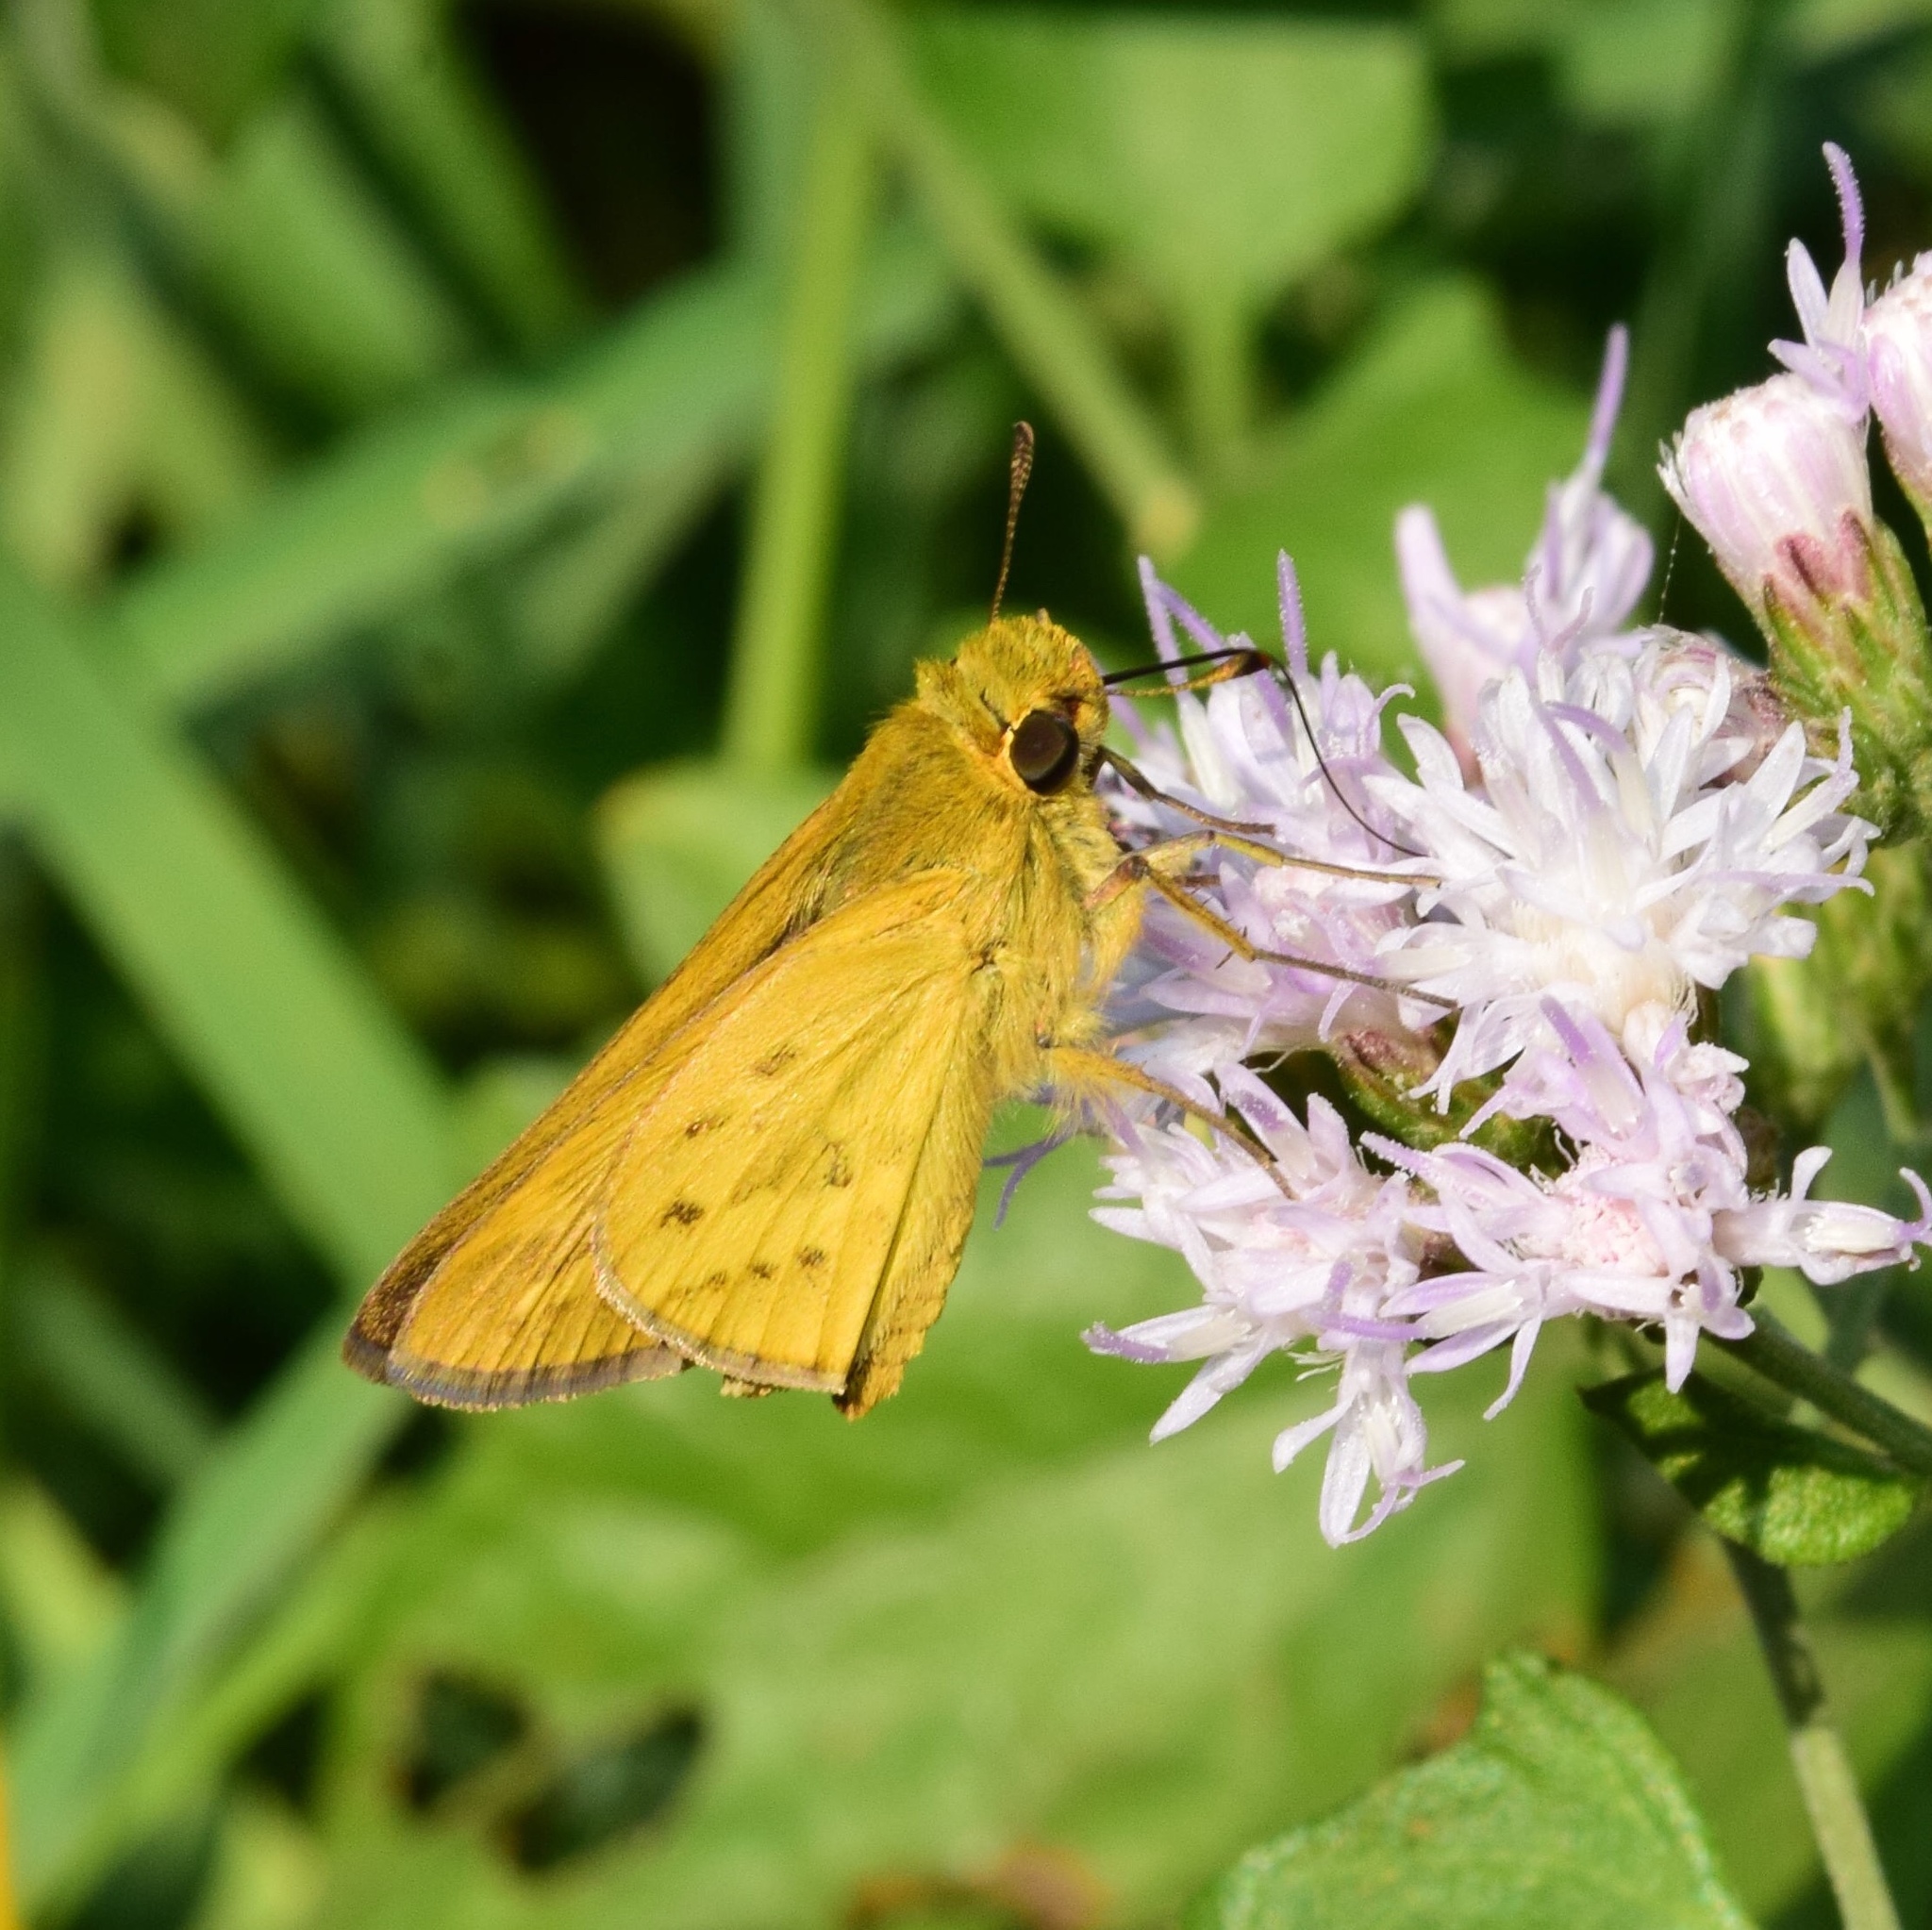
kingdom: Animalia
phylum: Arthropoda
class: Insecta
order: Hymenoptera
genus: Afrogenes
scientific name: Afrogenes
